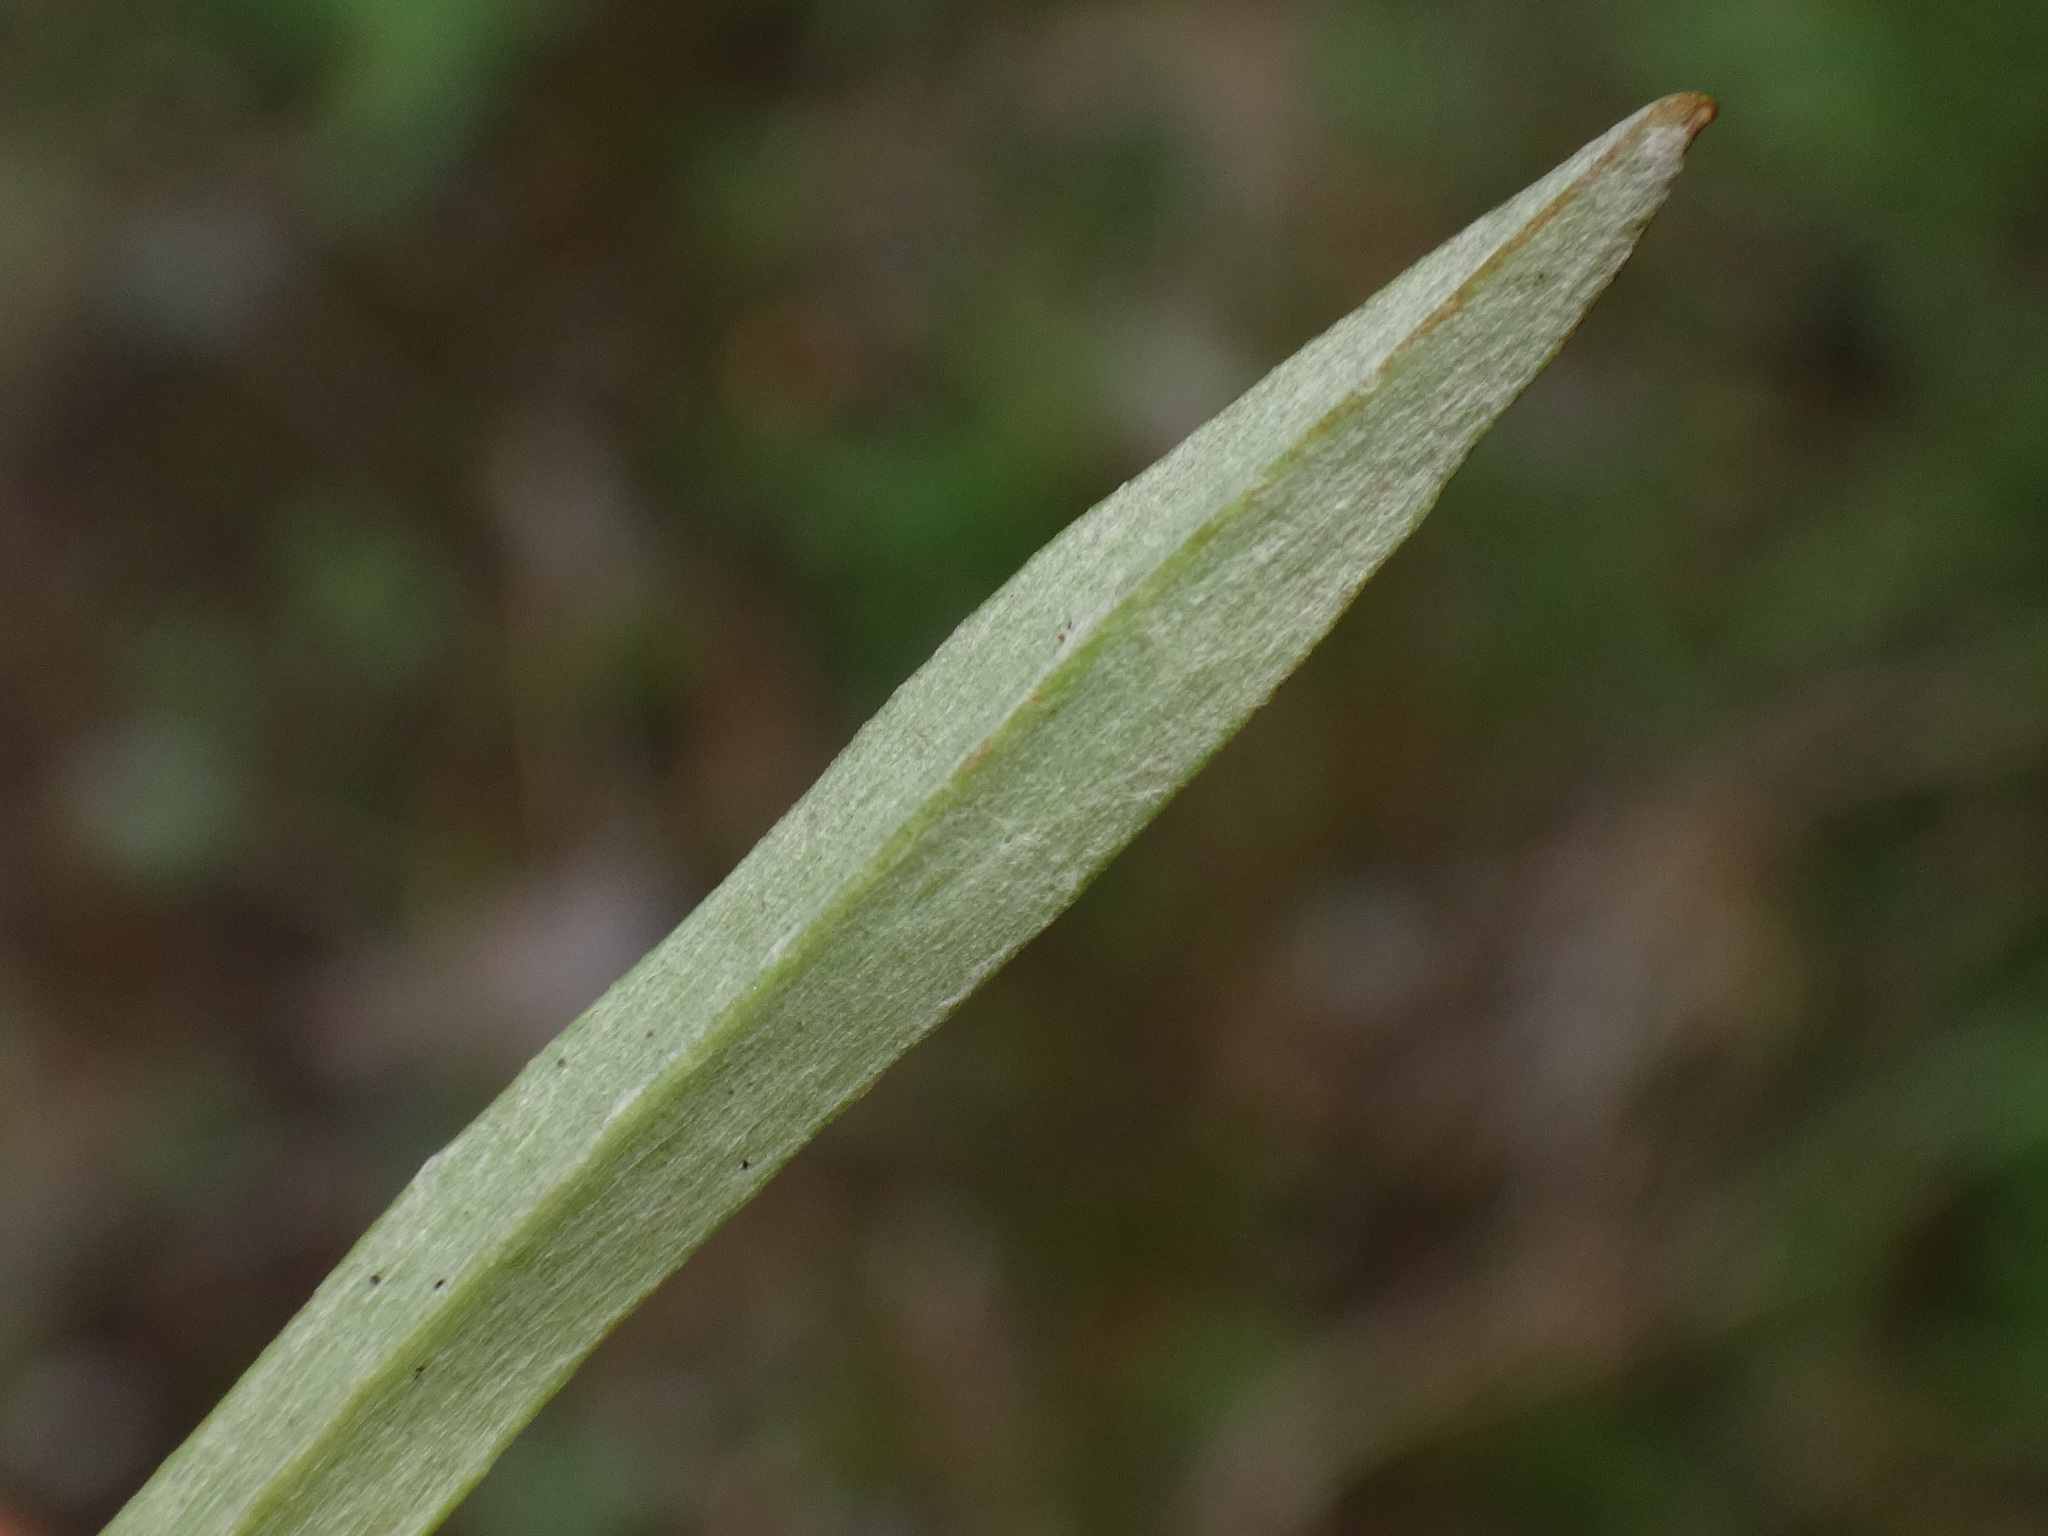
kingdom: Plantae
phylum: Tracheophyta
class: Magnoliopsida
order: Asterales
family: Asteraceae
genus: Omalotheca
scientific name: Omalotheca sylvatica
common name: Heath cudweed
